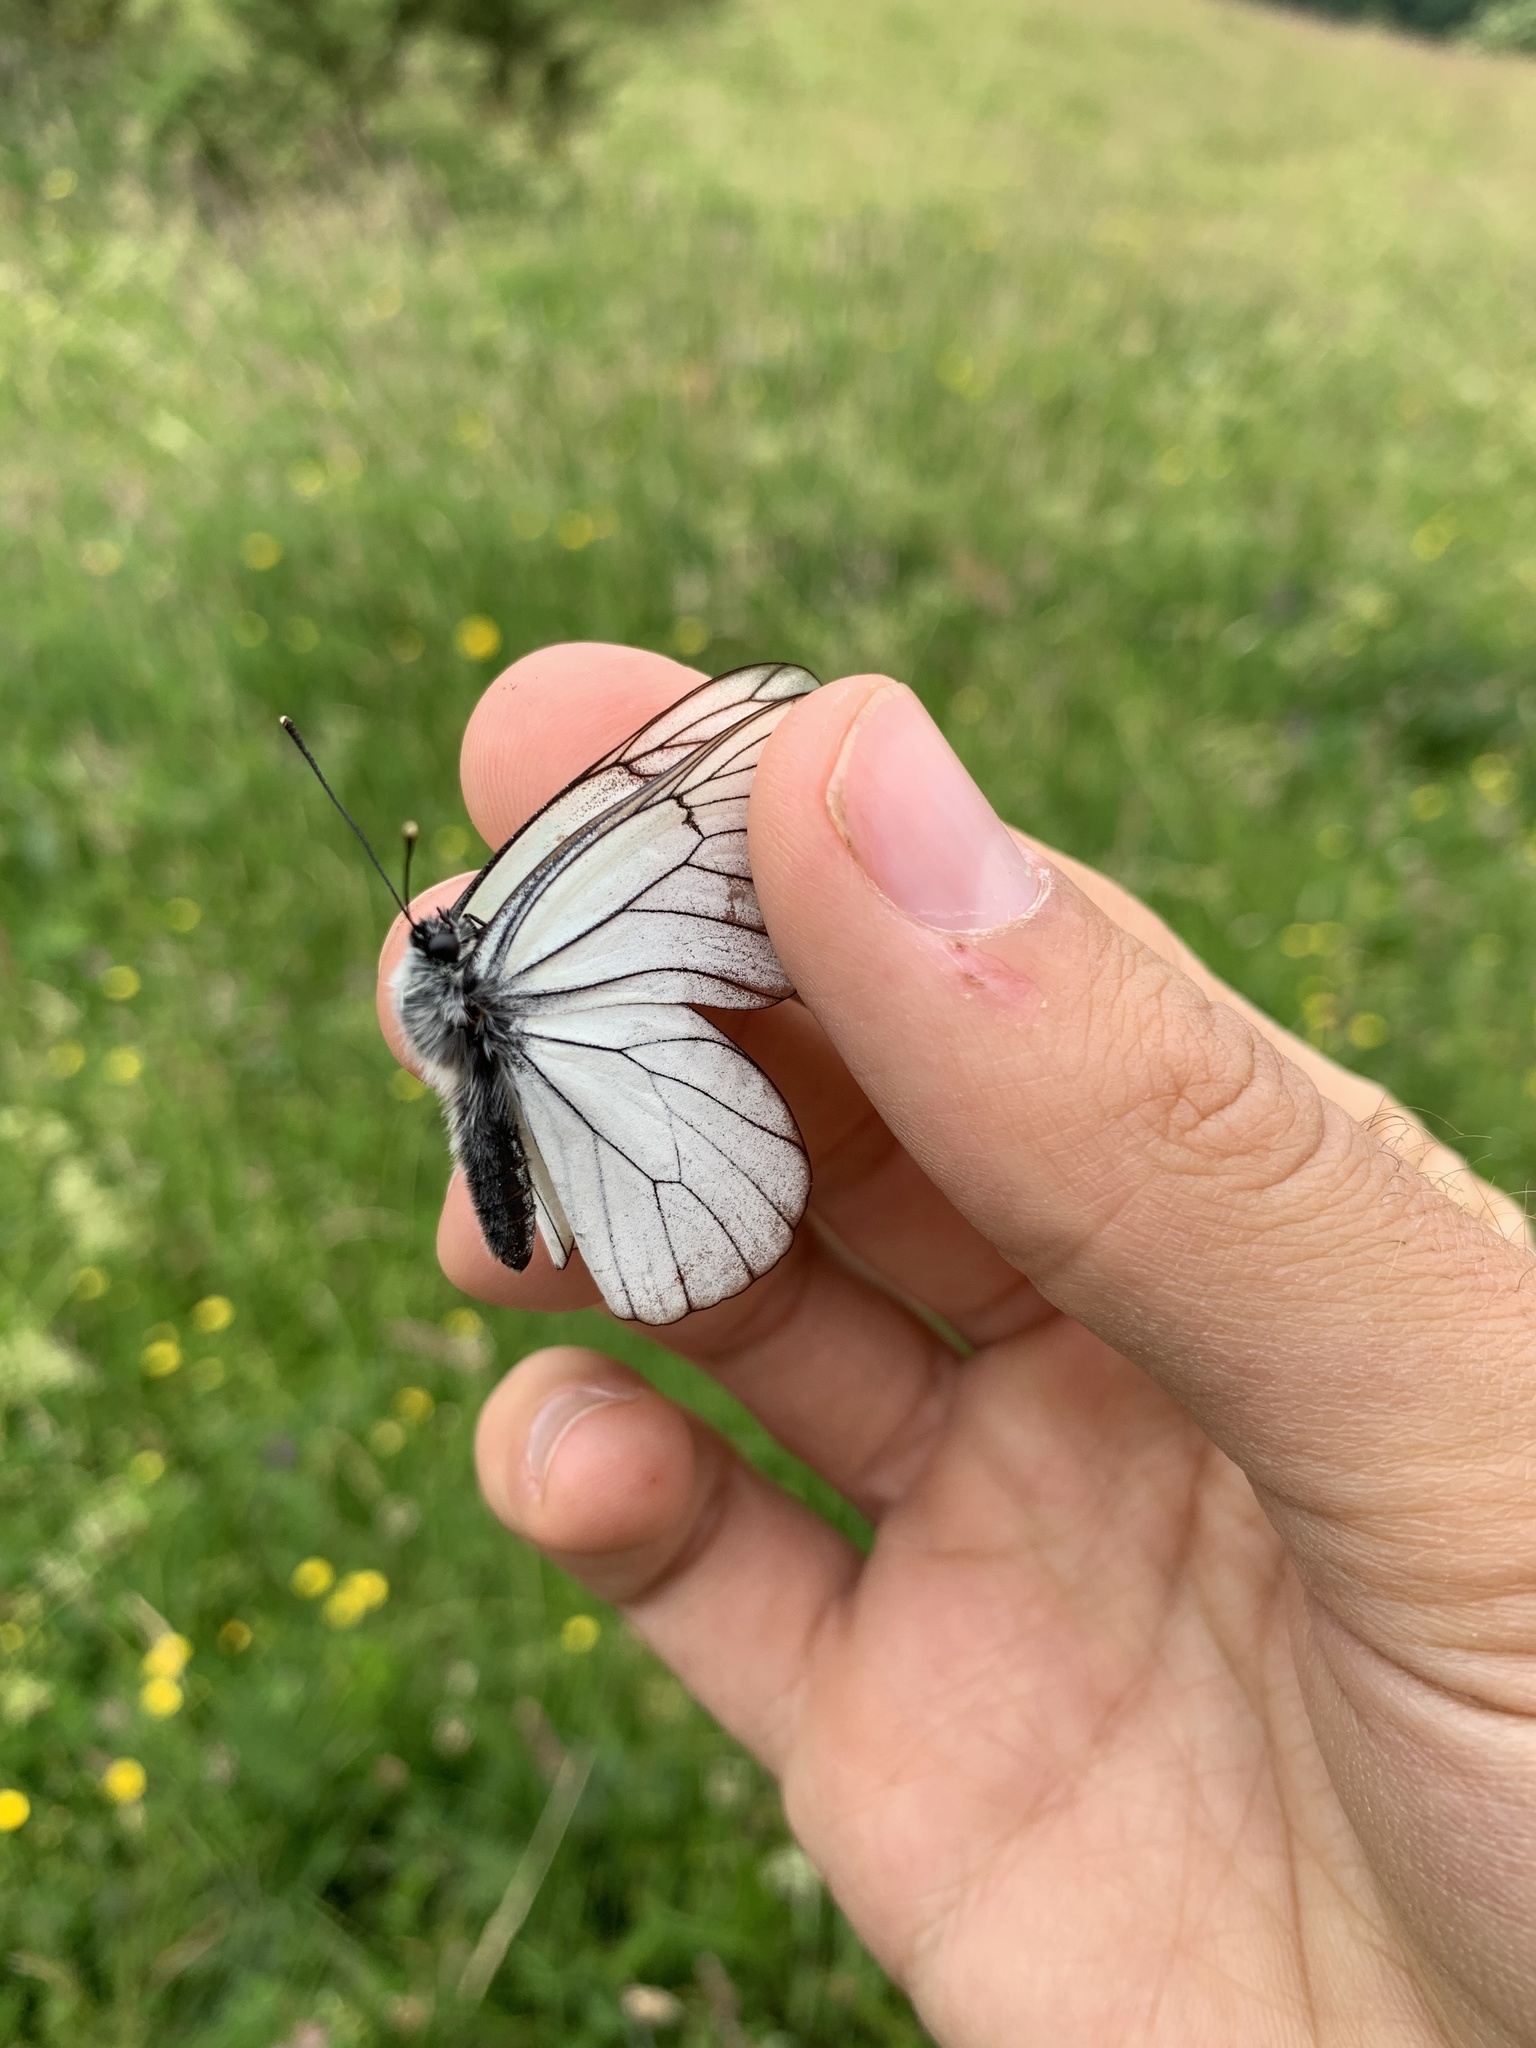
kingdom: Animalia
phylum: Arthropoda
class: Insecta
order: Lepidoptera
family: Pieridae
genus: Aporia
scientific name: Aporia crataegi
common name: Black-veined white
